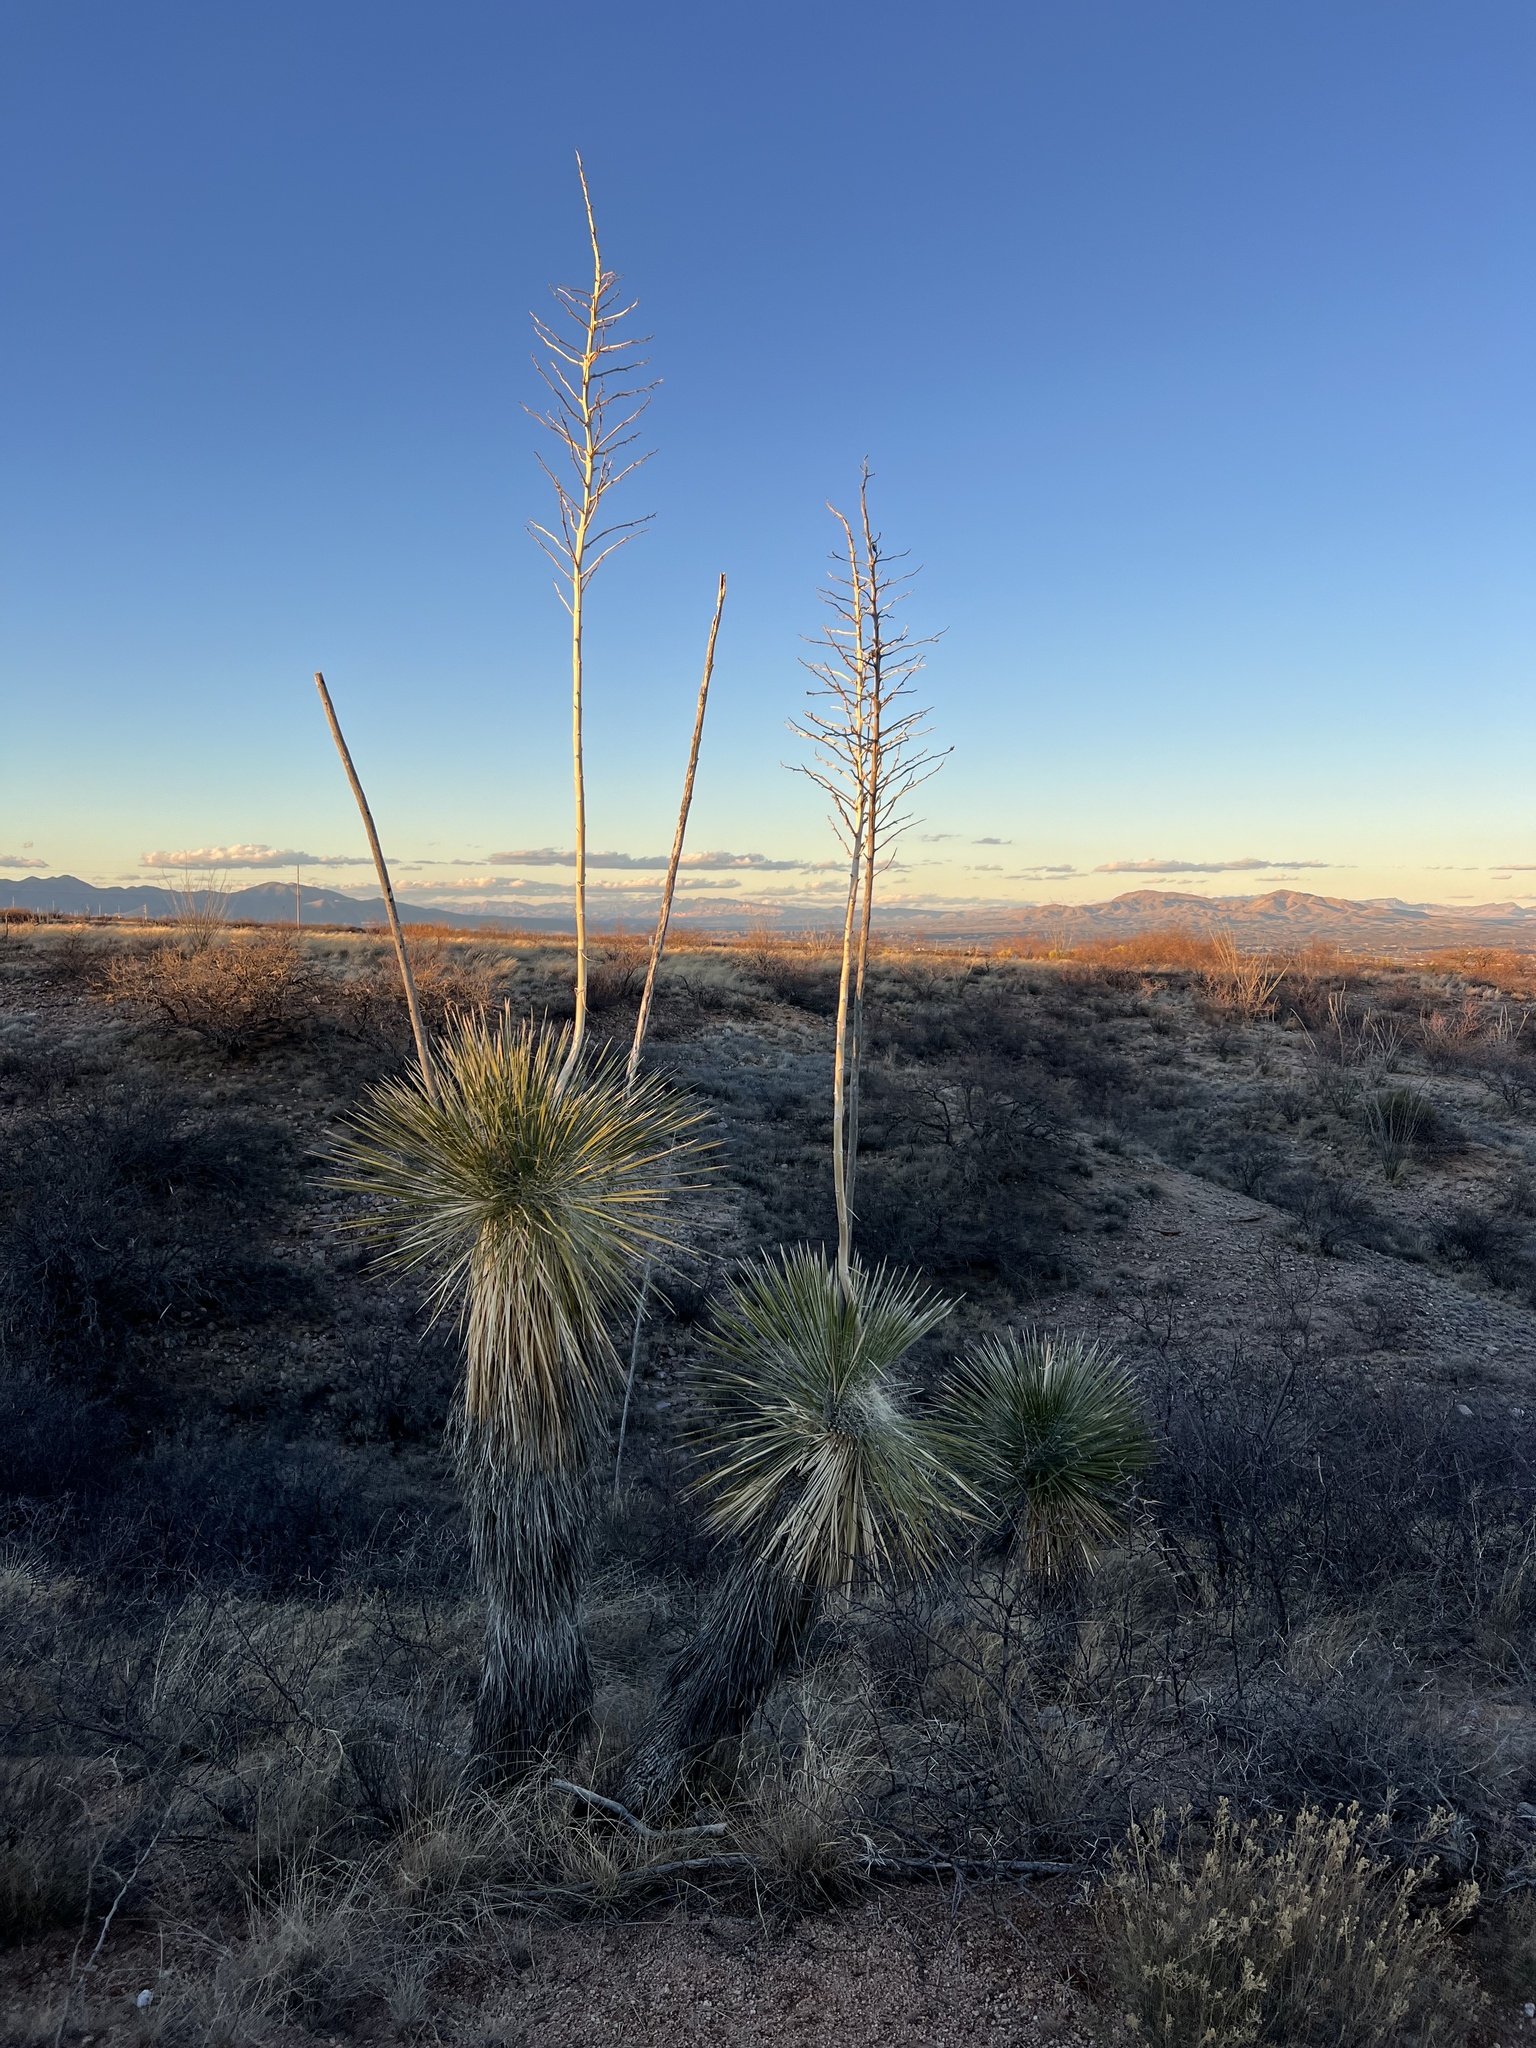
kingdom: Plantae
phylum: Tracheophyta
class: Liliopsida
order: Asparagales
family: Asparagaceae
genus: Yucca
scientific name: Yucca elata
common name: Palmella
